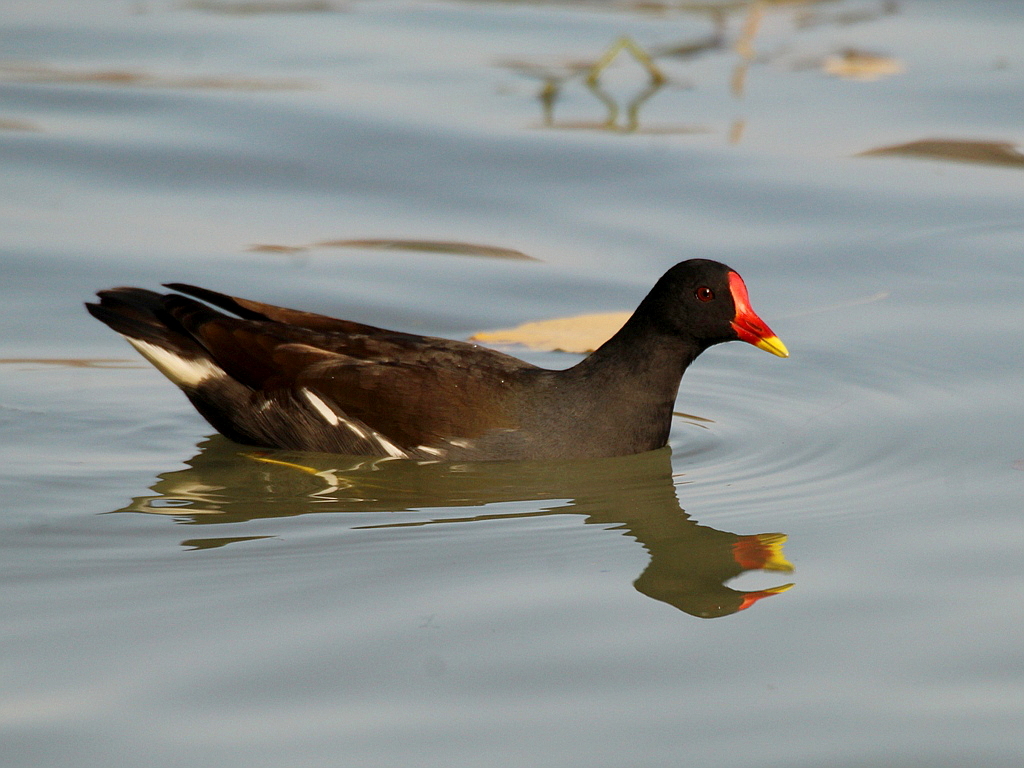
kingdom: Animalia
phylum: Chordata
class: Aves
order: Gruiformes
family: Rallidae
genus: Gallinula
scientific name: Gallinula chloropus
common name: Common moorhen
